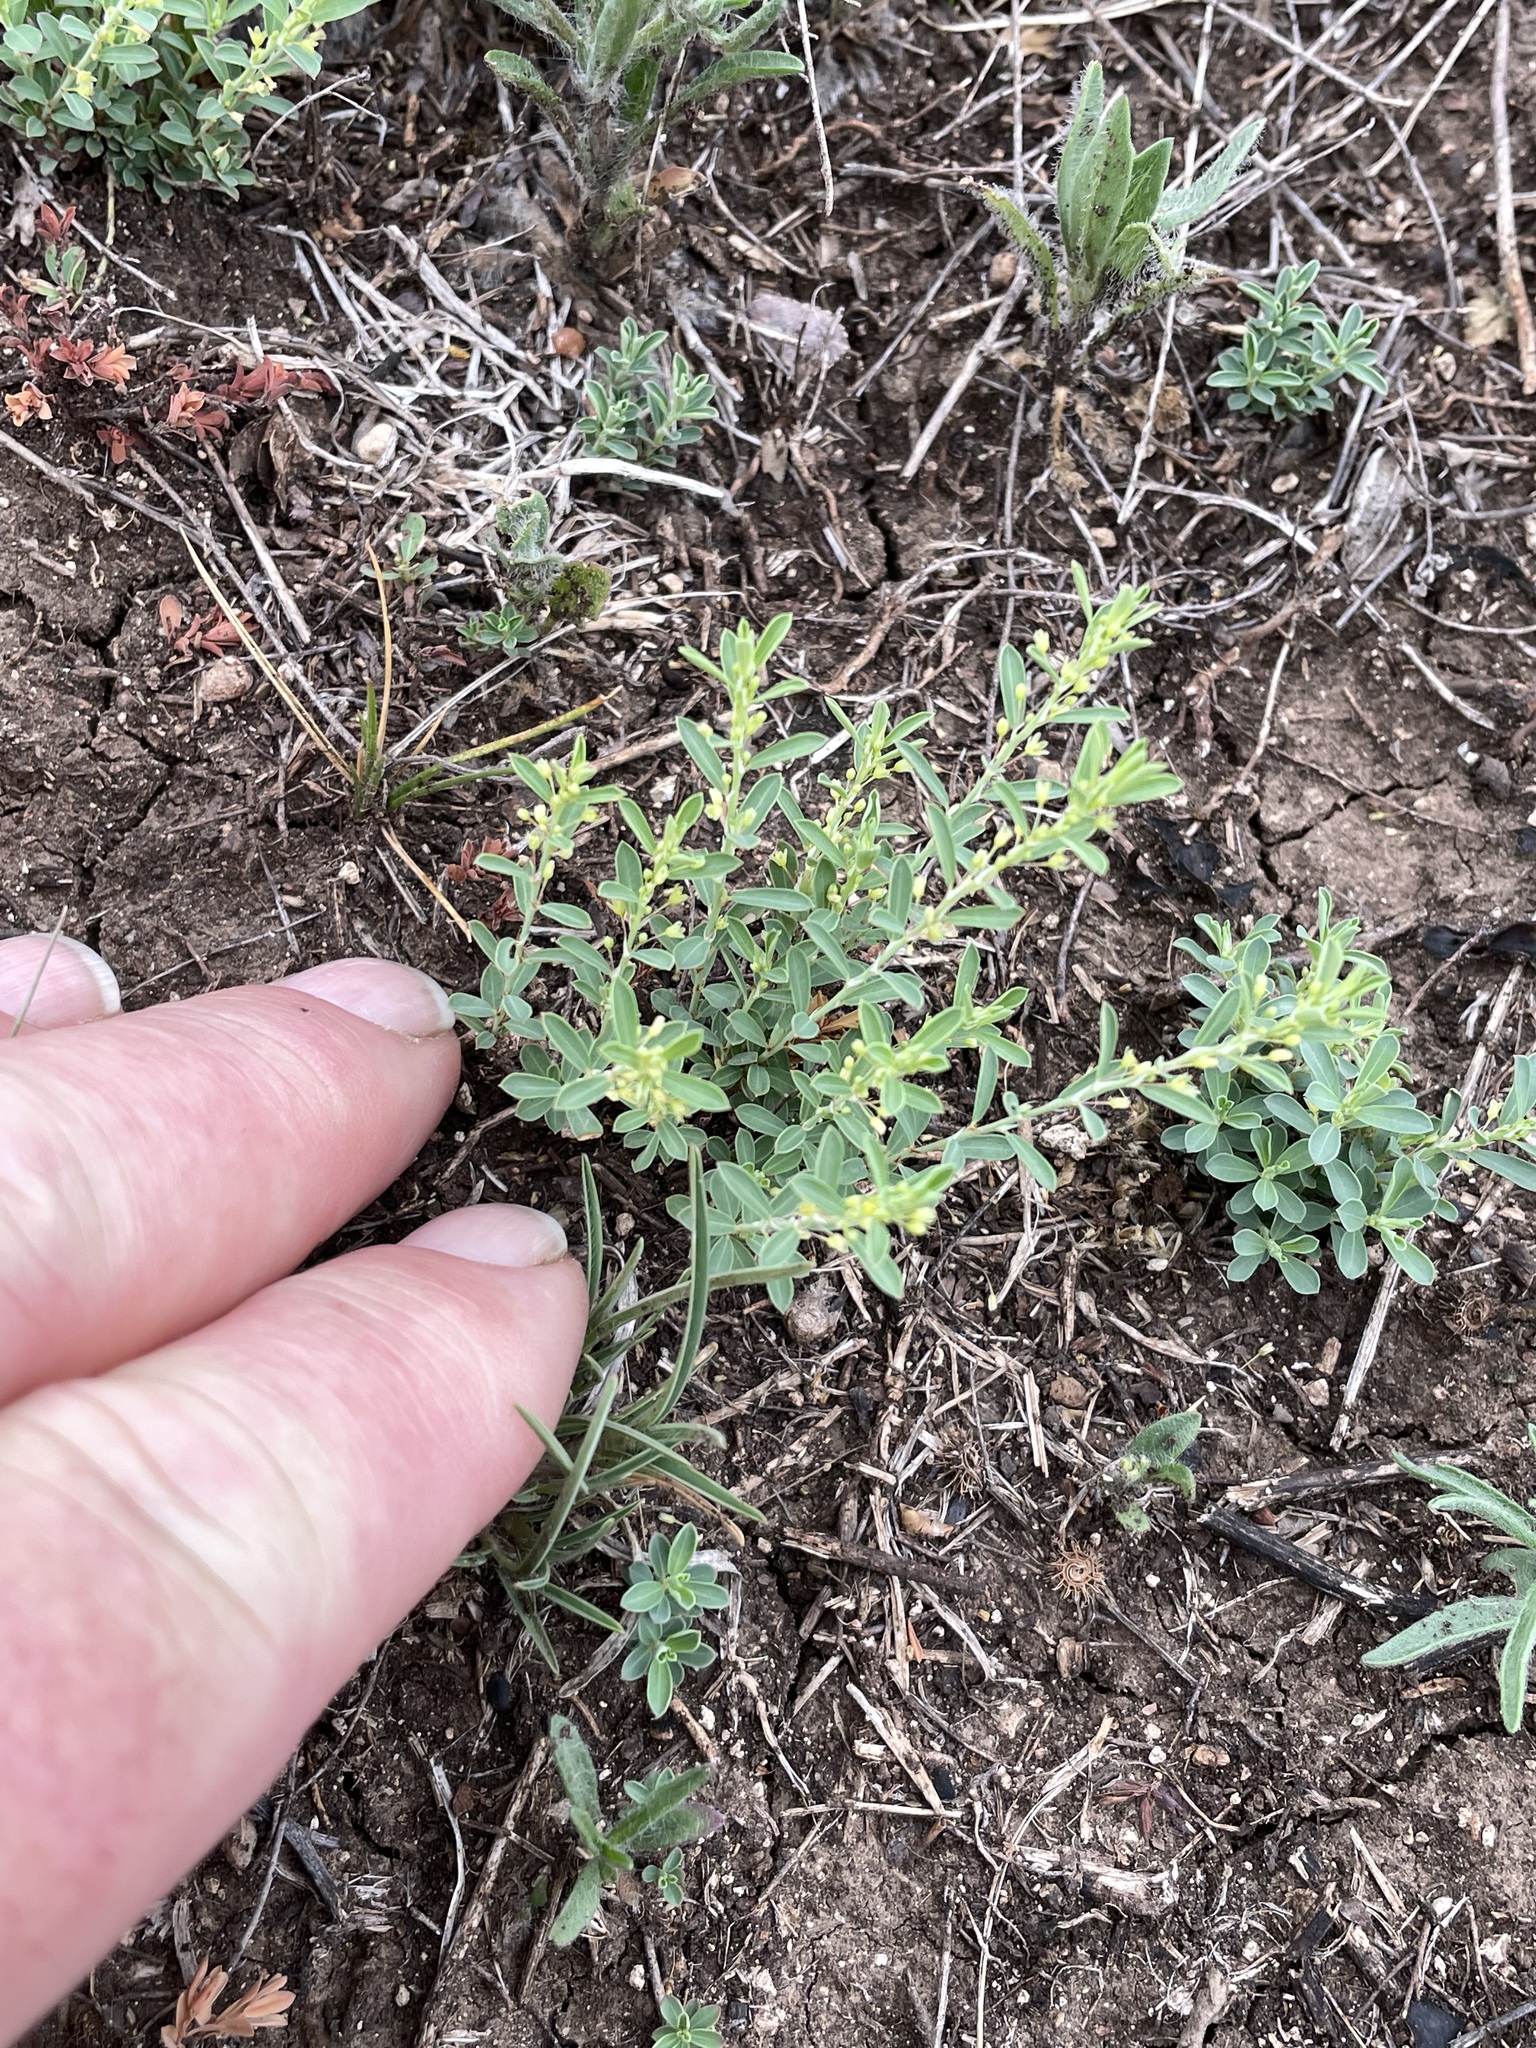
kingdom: Plantae
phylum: Tracheophyta
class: Magnoliopsida
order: Malpighiales
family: Phyllanthaceae
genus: Phyllanthus
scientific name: Phyllanthus polygonoides
